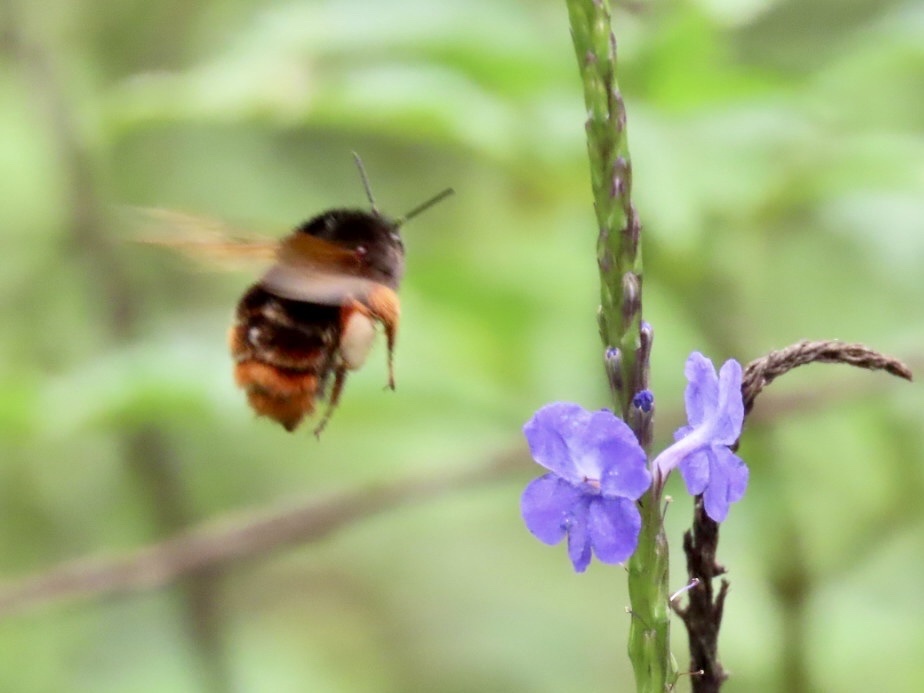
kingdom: Animalia
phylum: Arthropoda
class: Insecta
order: Hymenoptera
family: Apidae
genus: Bombus
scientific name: Bombus eximius
